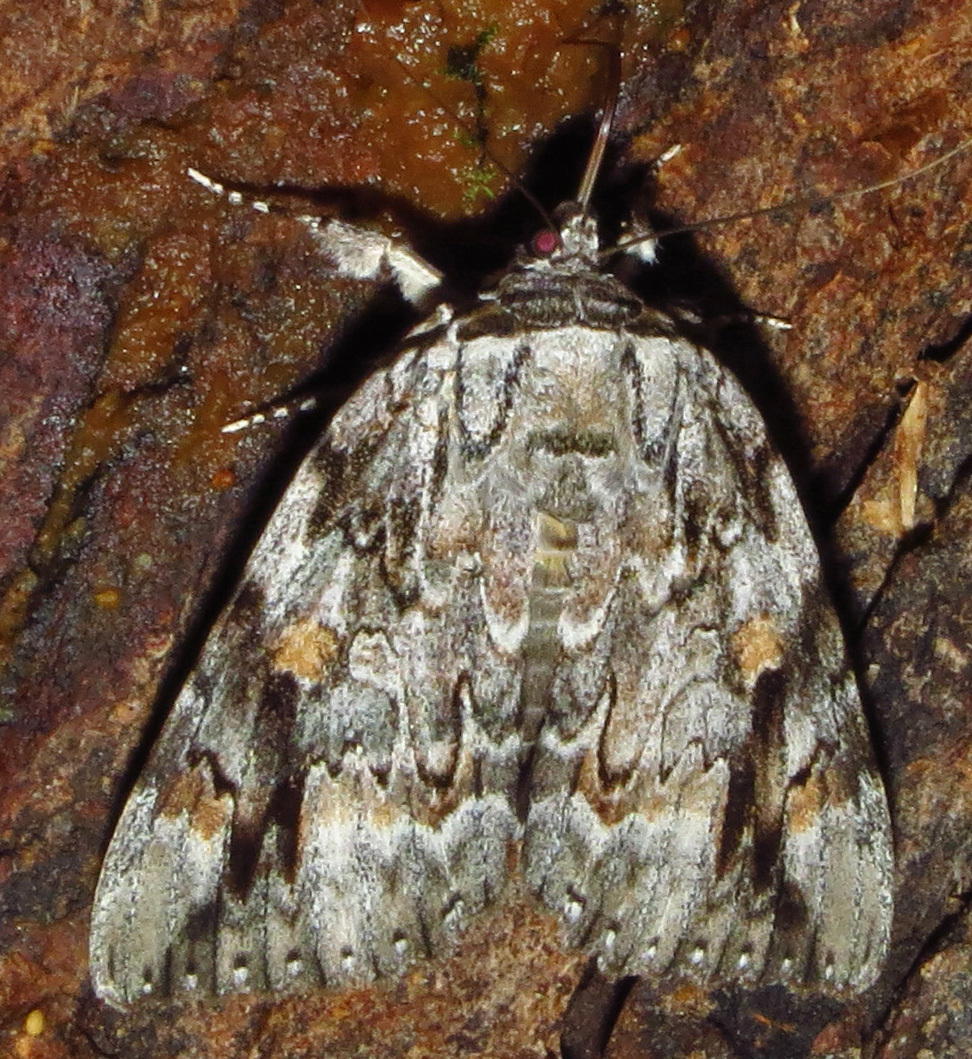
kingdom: Animalia
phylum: Arthropoda
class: Insecta
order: Lepidoptera
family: Erebidae
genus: Catocala
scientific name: Catocala maestosa
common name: Sad underwing
